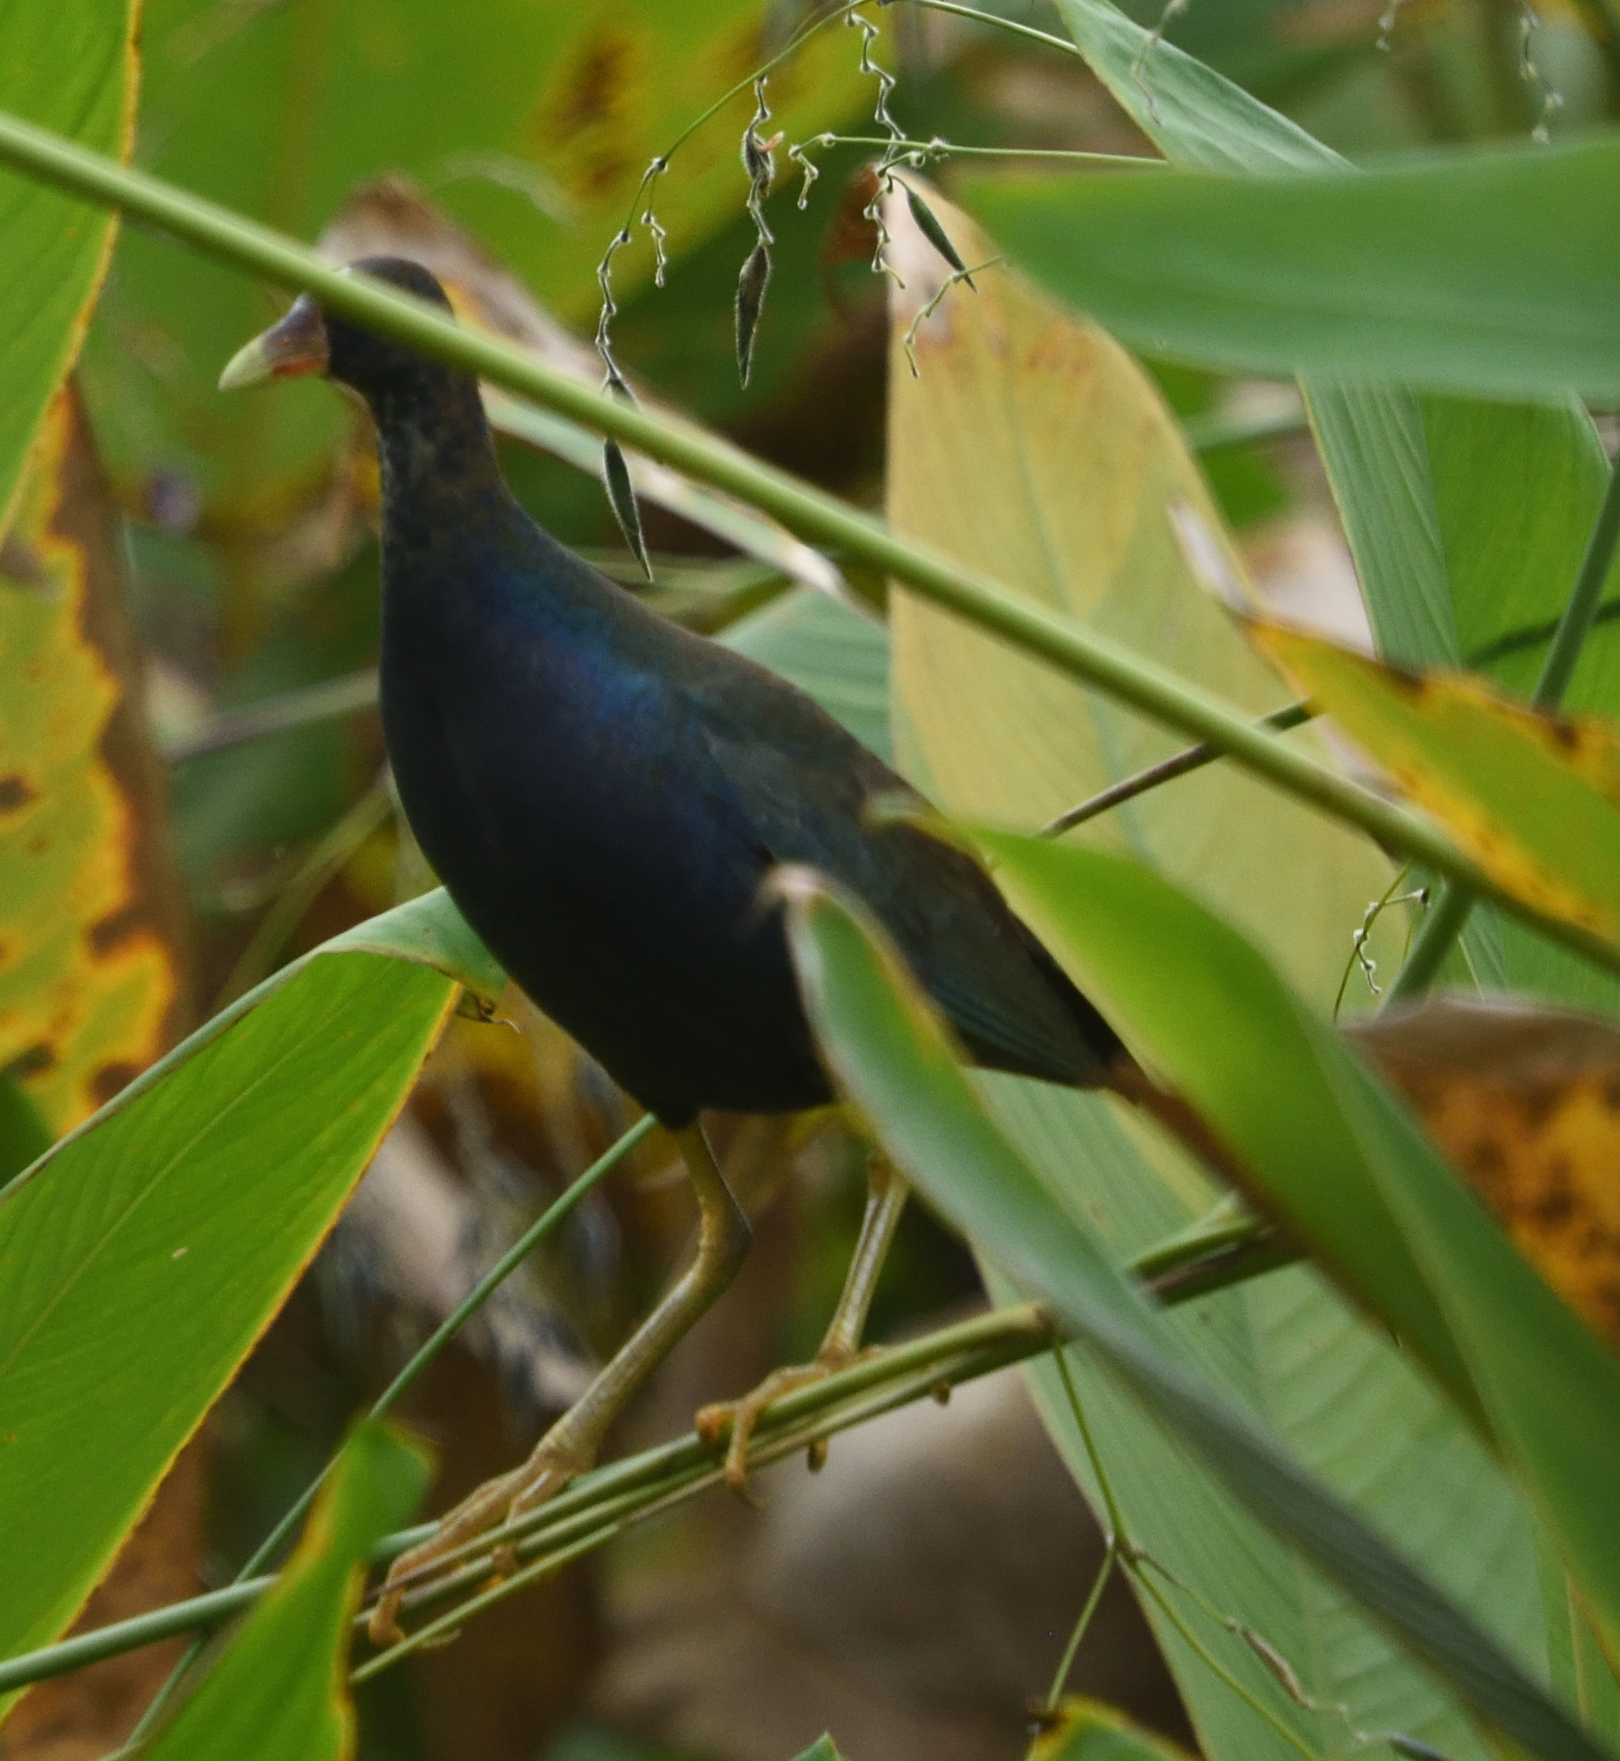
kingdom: Animalia
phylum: Chordata
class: Aves
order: Gruiformes
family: Rallidae
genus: Porphyrio
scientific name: Porphyrio martinica
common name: Purple gallinule
